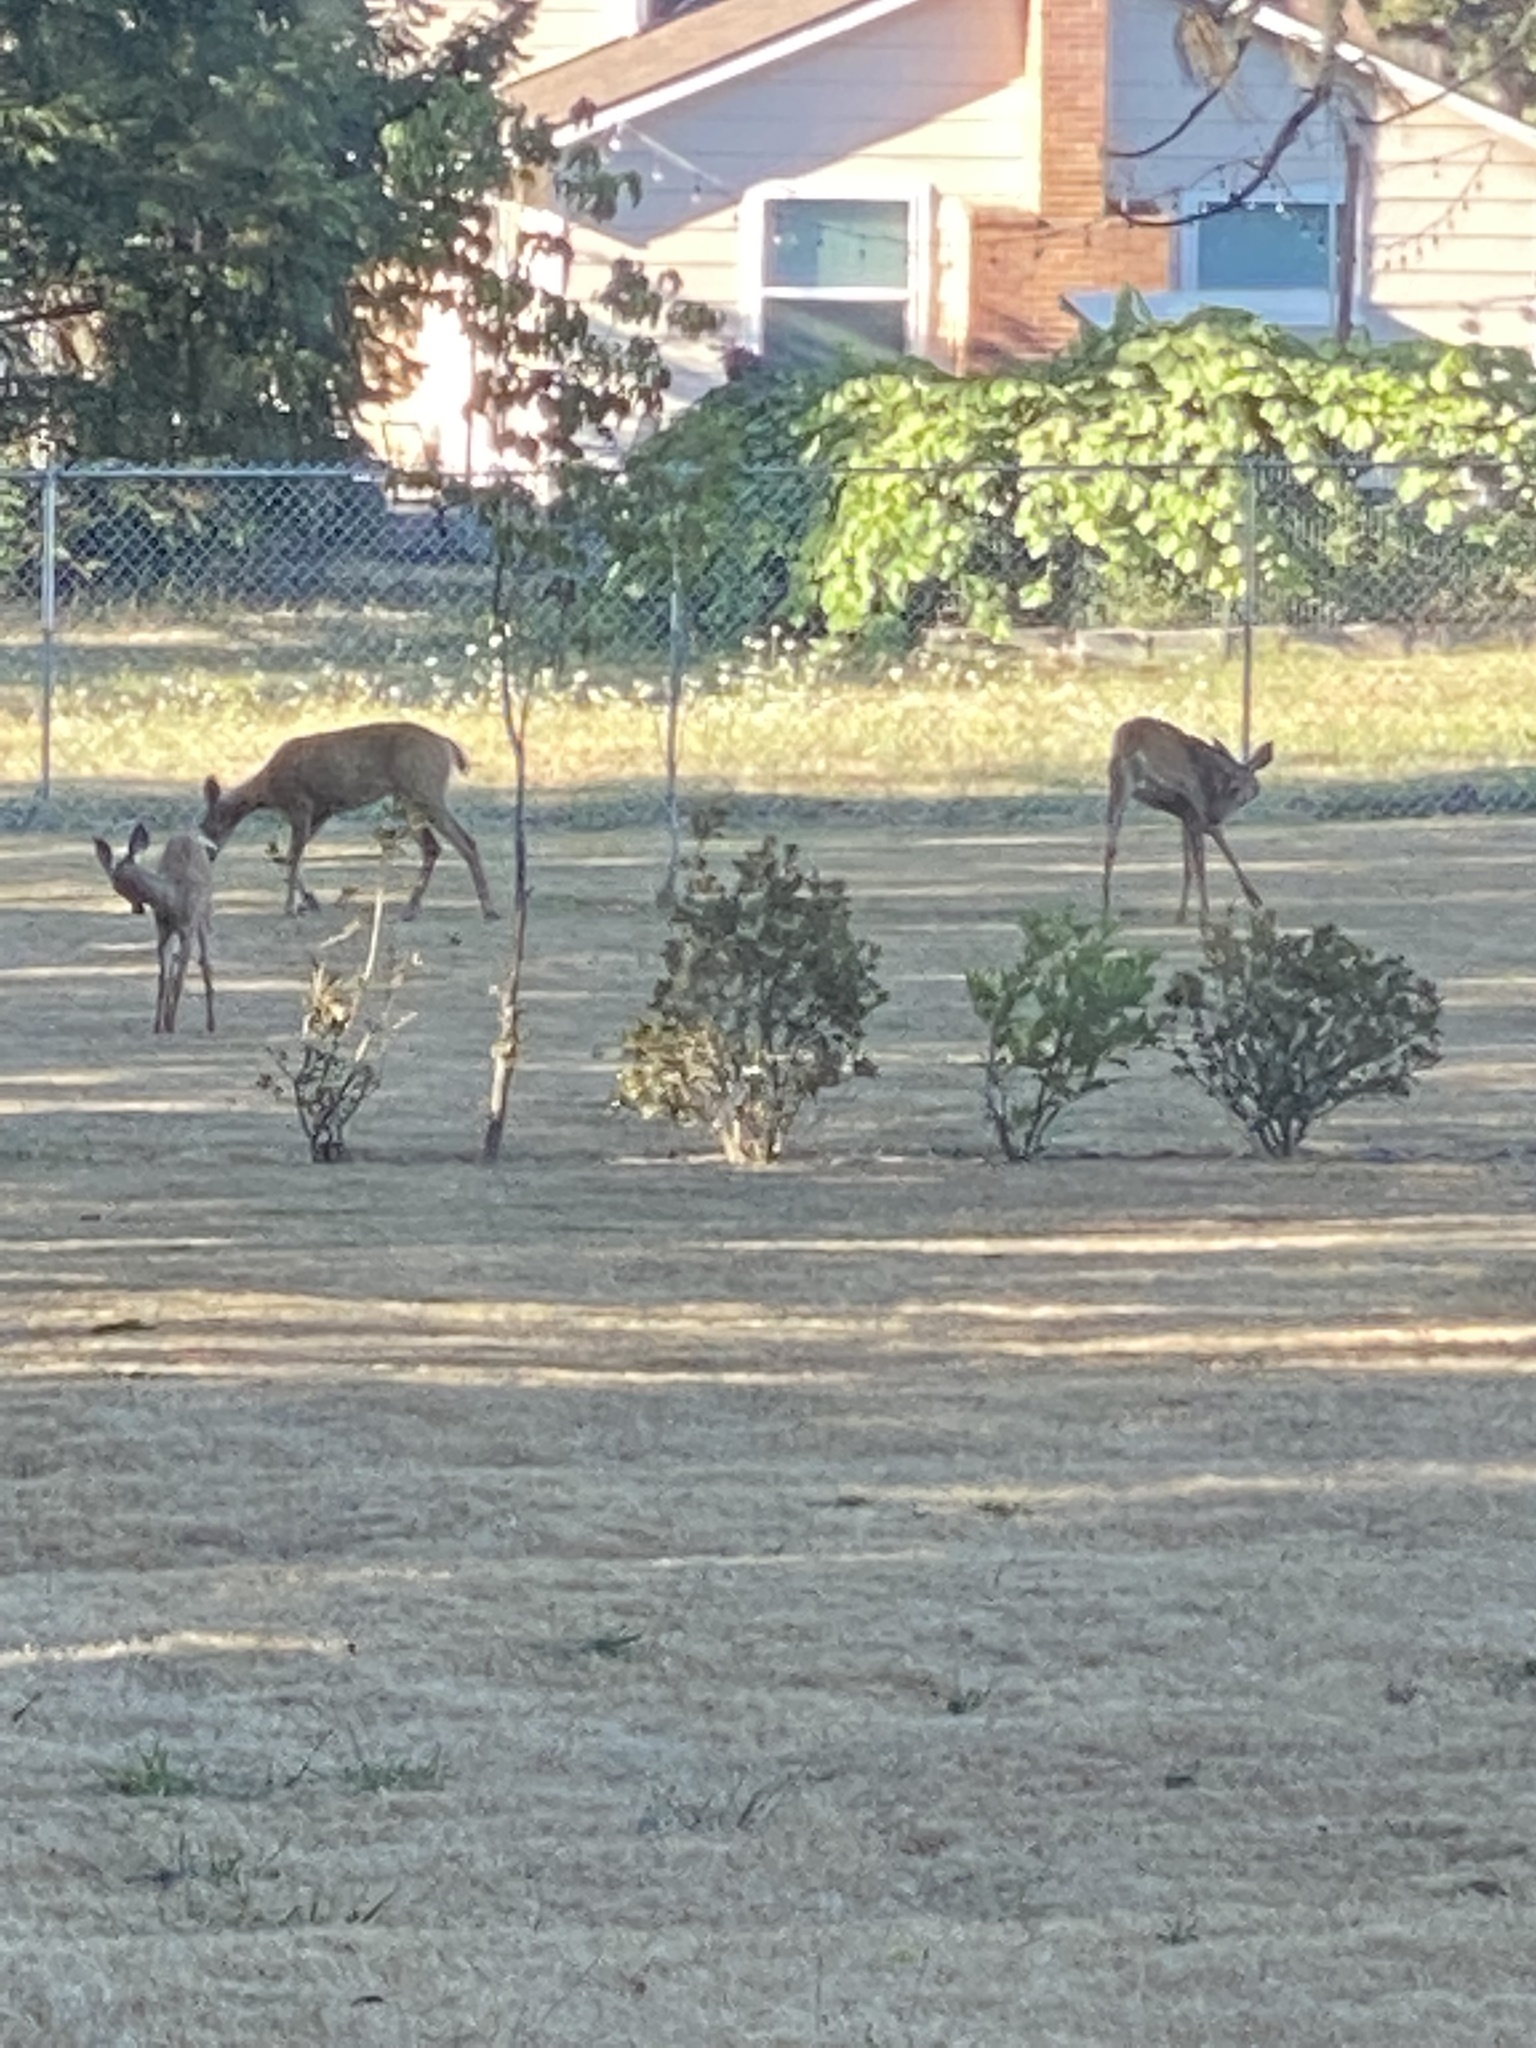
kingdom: Animalia
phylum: Chordata
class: Mammalia
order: Artiodactyla
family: Cervidae
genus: Odocoileus
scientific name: Odocoileus hemionus
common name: Mule deer
